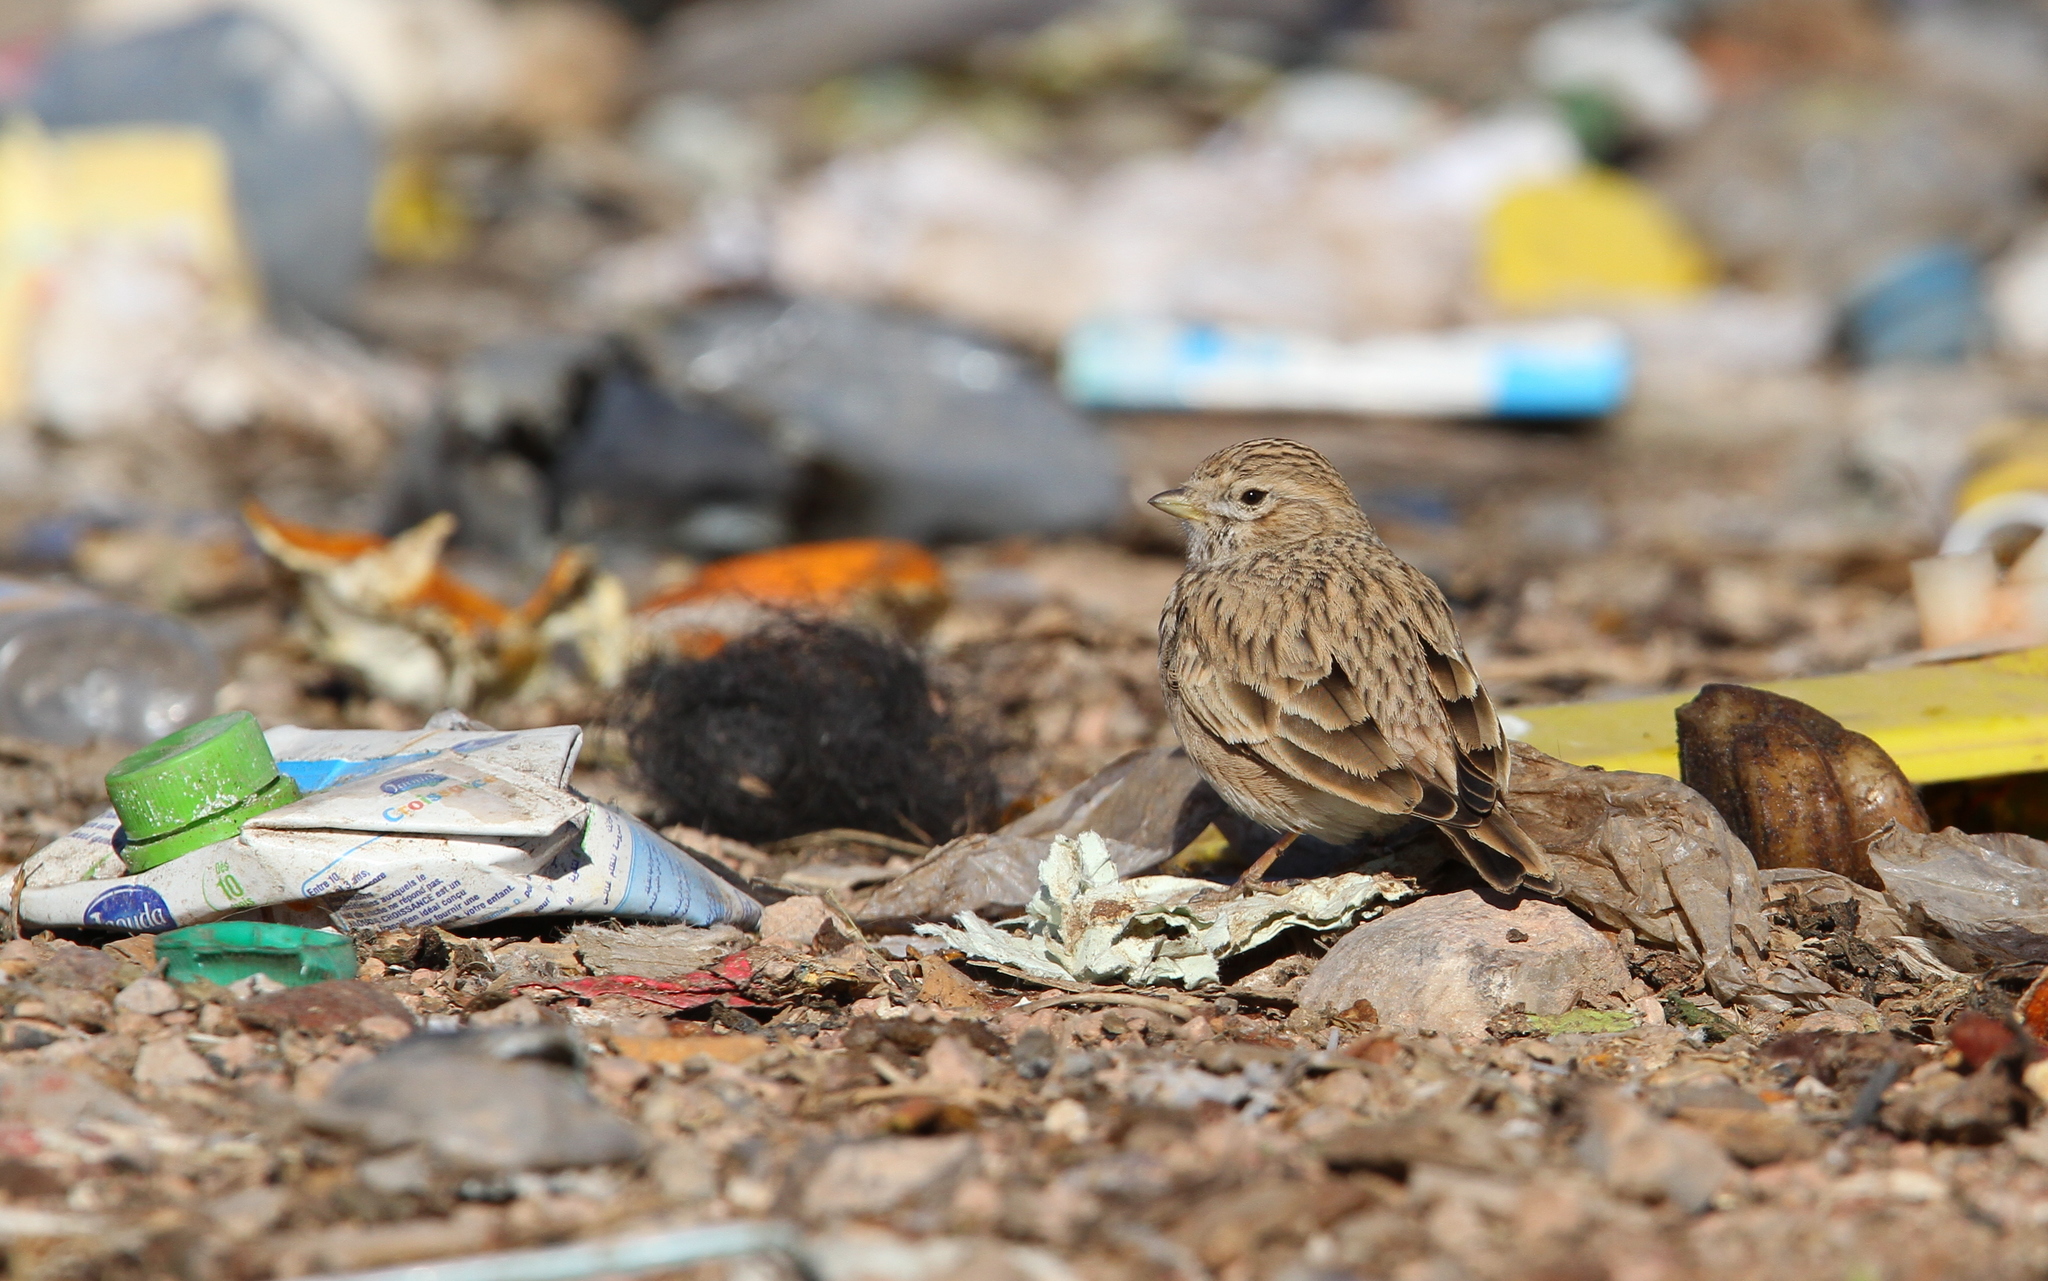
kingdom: Animalia
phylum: Chordata
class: Aves
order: Passeriformes
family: Alaudidae
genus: Calandrella
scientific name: Calandrella rufescens
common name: Lesser short-toed lark
